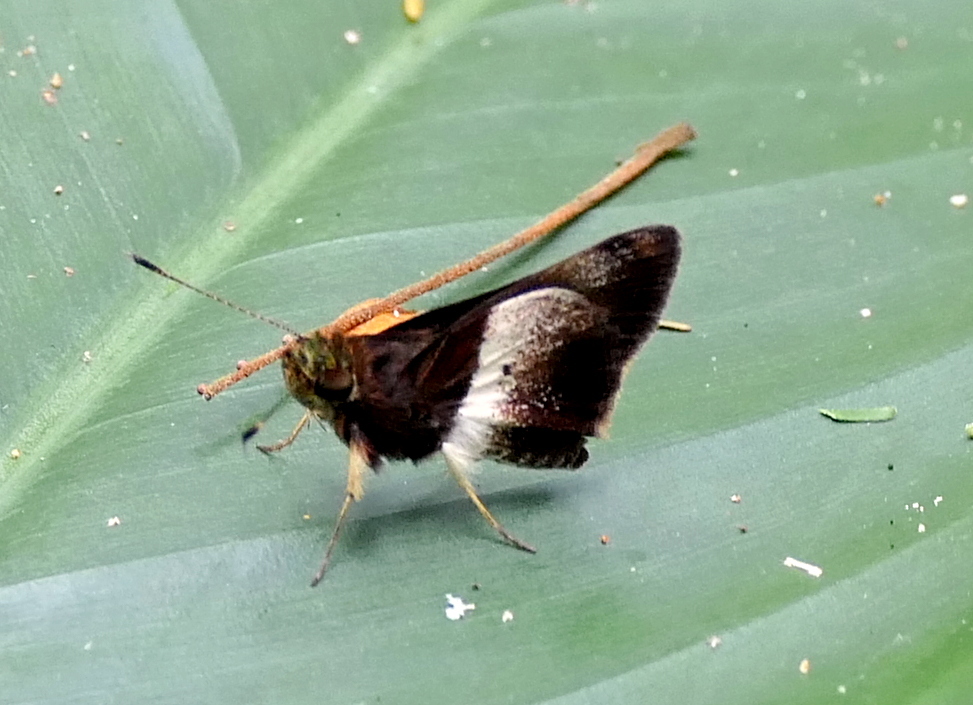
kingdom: Animalia
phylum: Arthropoda
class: Insecta
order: Lepidoptera
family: Hesperiidae
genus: Moeris
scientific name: Moeris remus
